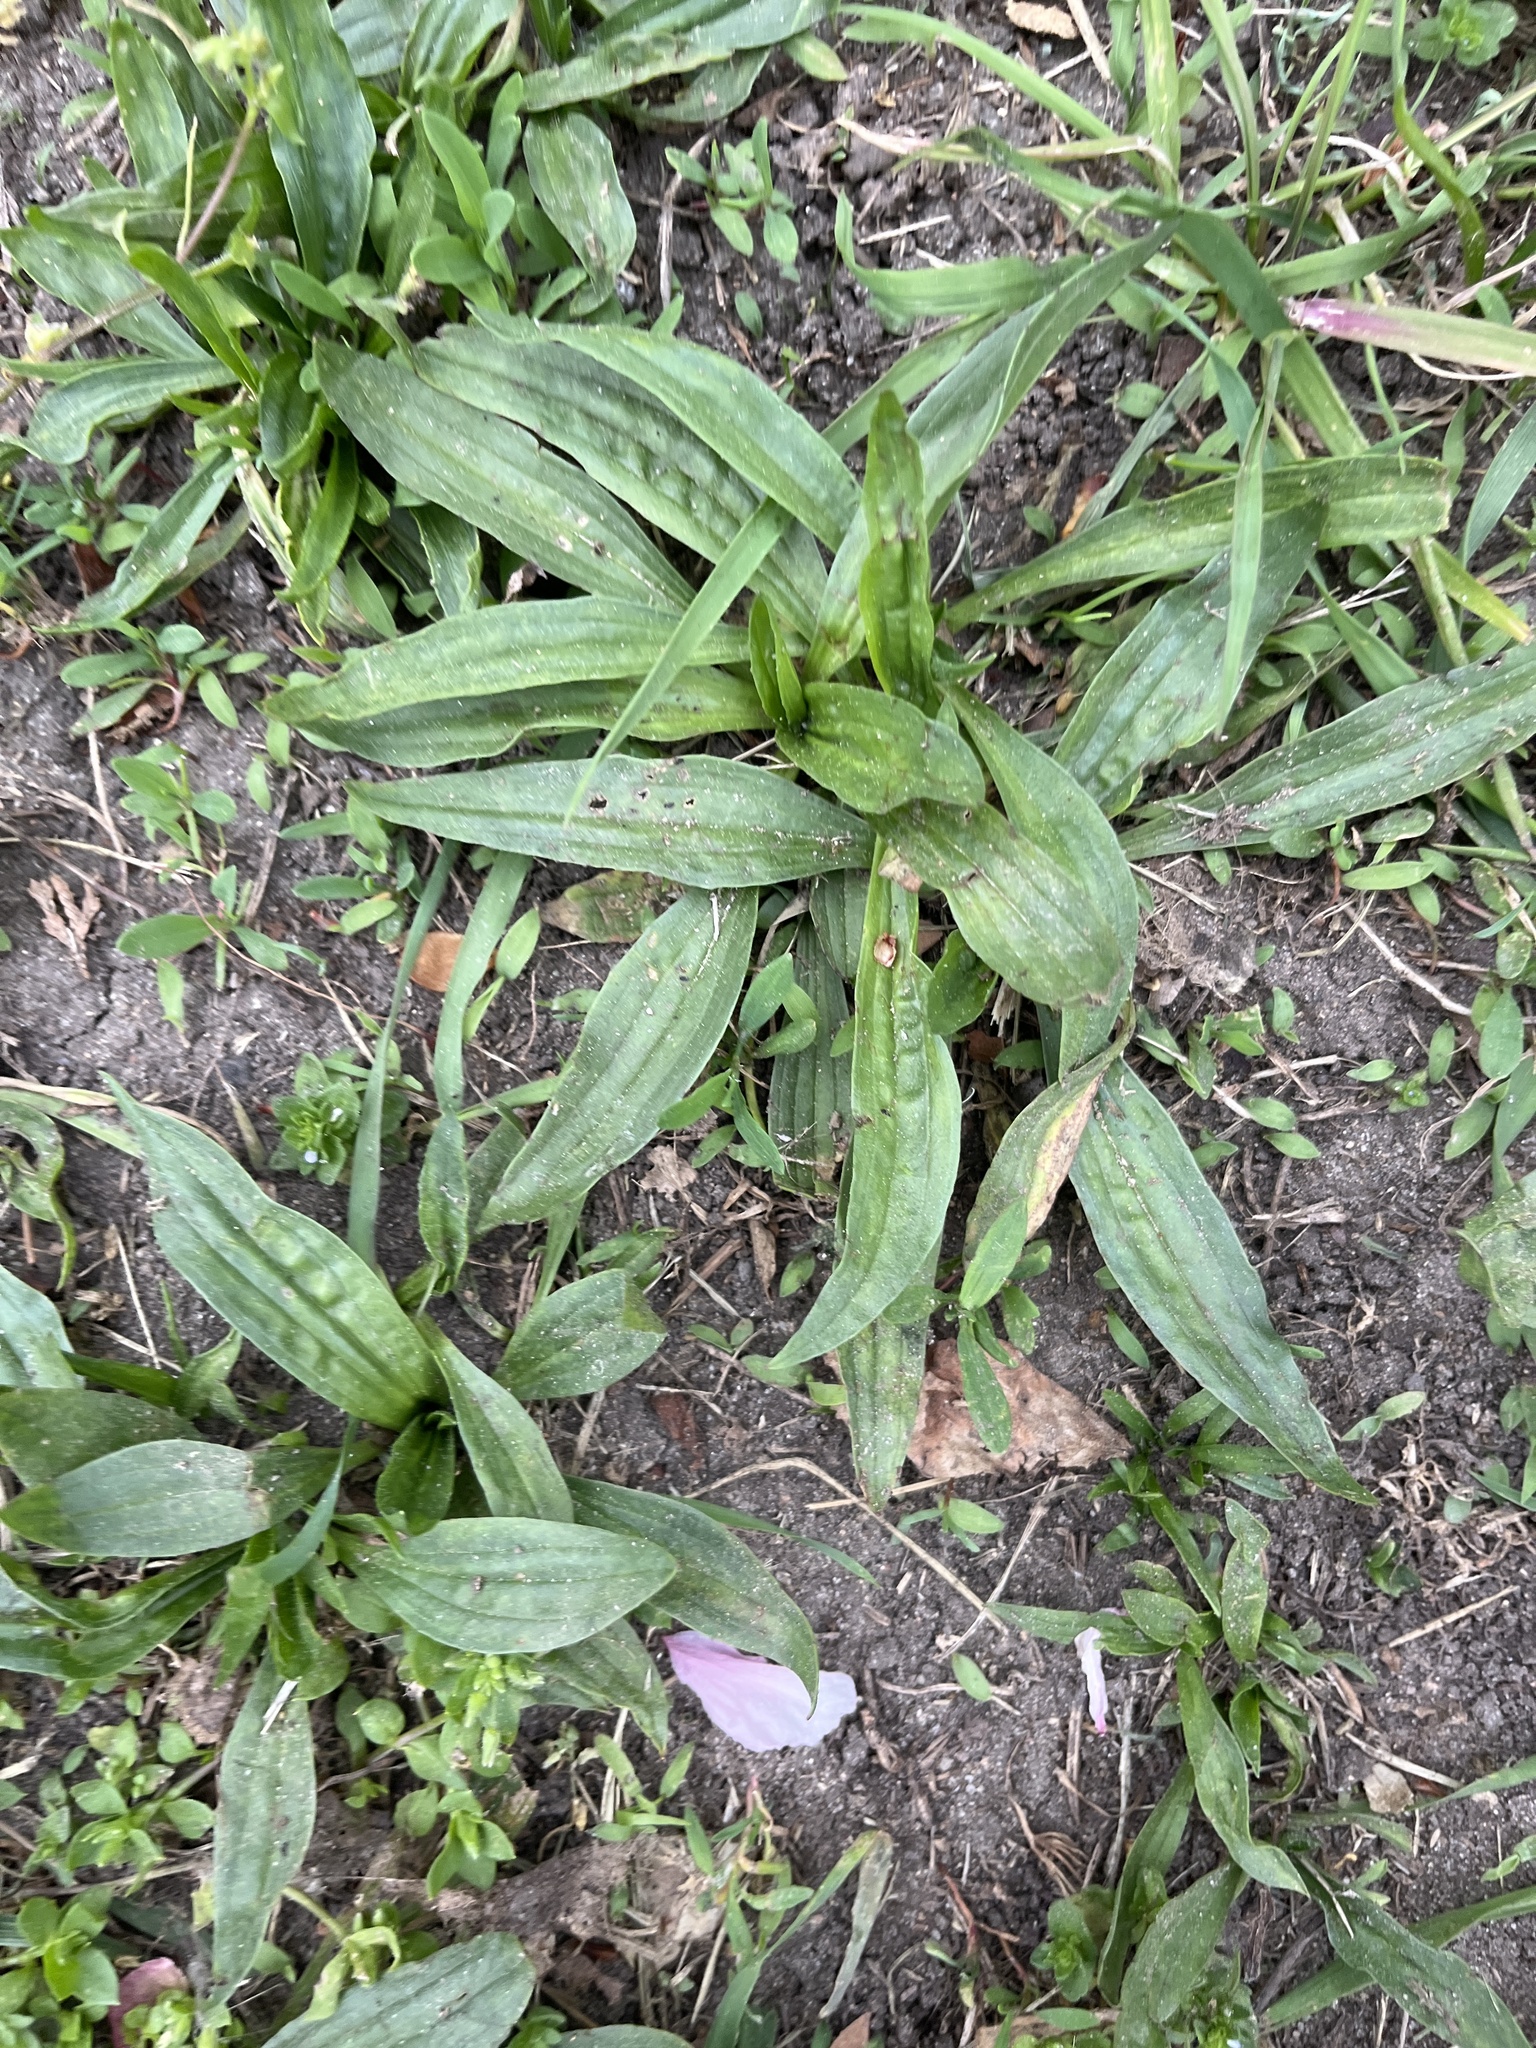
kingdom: Plantae
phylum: Tracheophyta
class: Magnoliopsida
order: Lamiales
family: Plantaginaceae
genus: Plantago
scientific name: Plantago lanceolata
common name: Ribwort plantain
